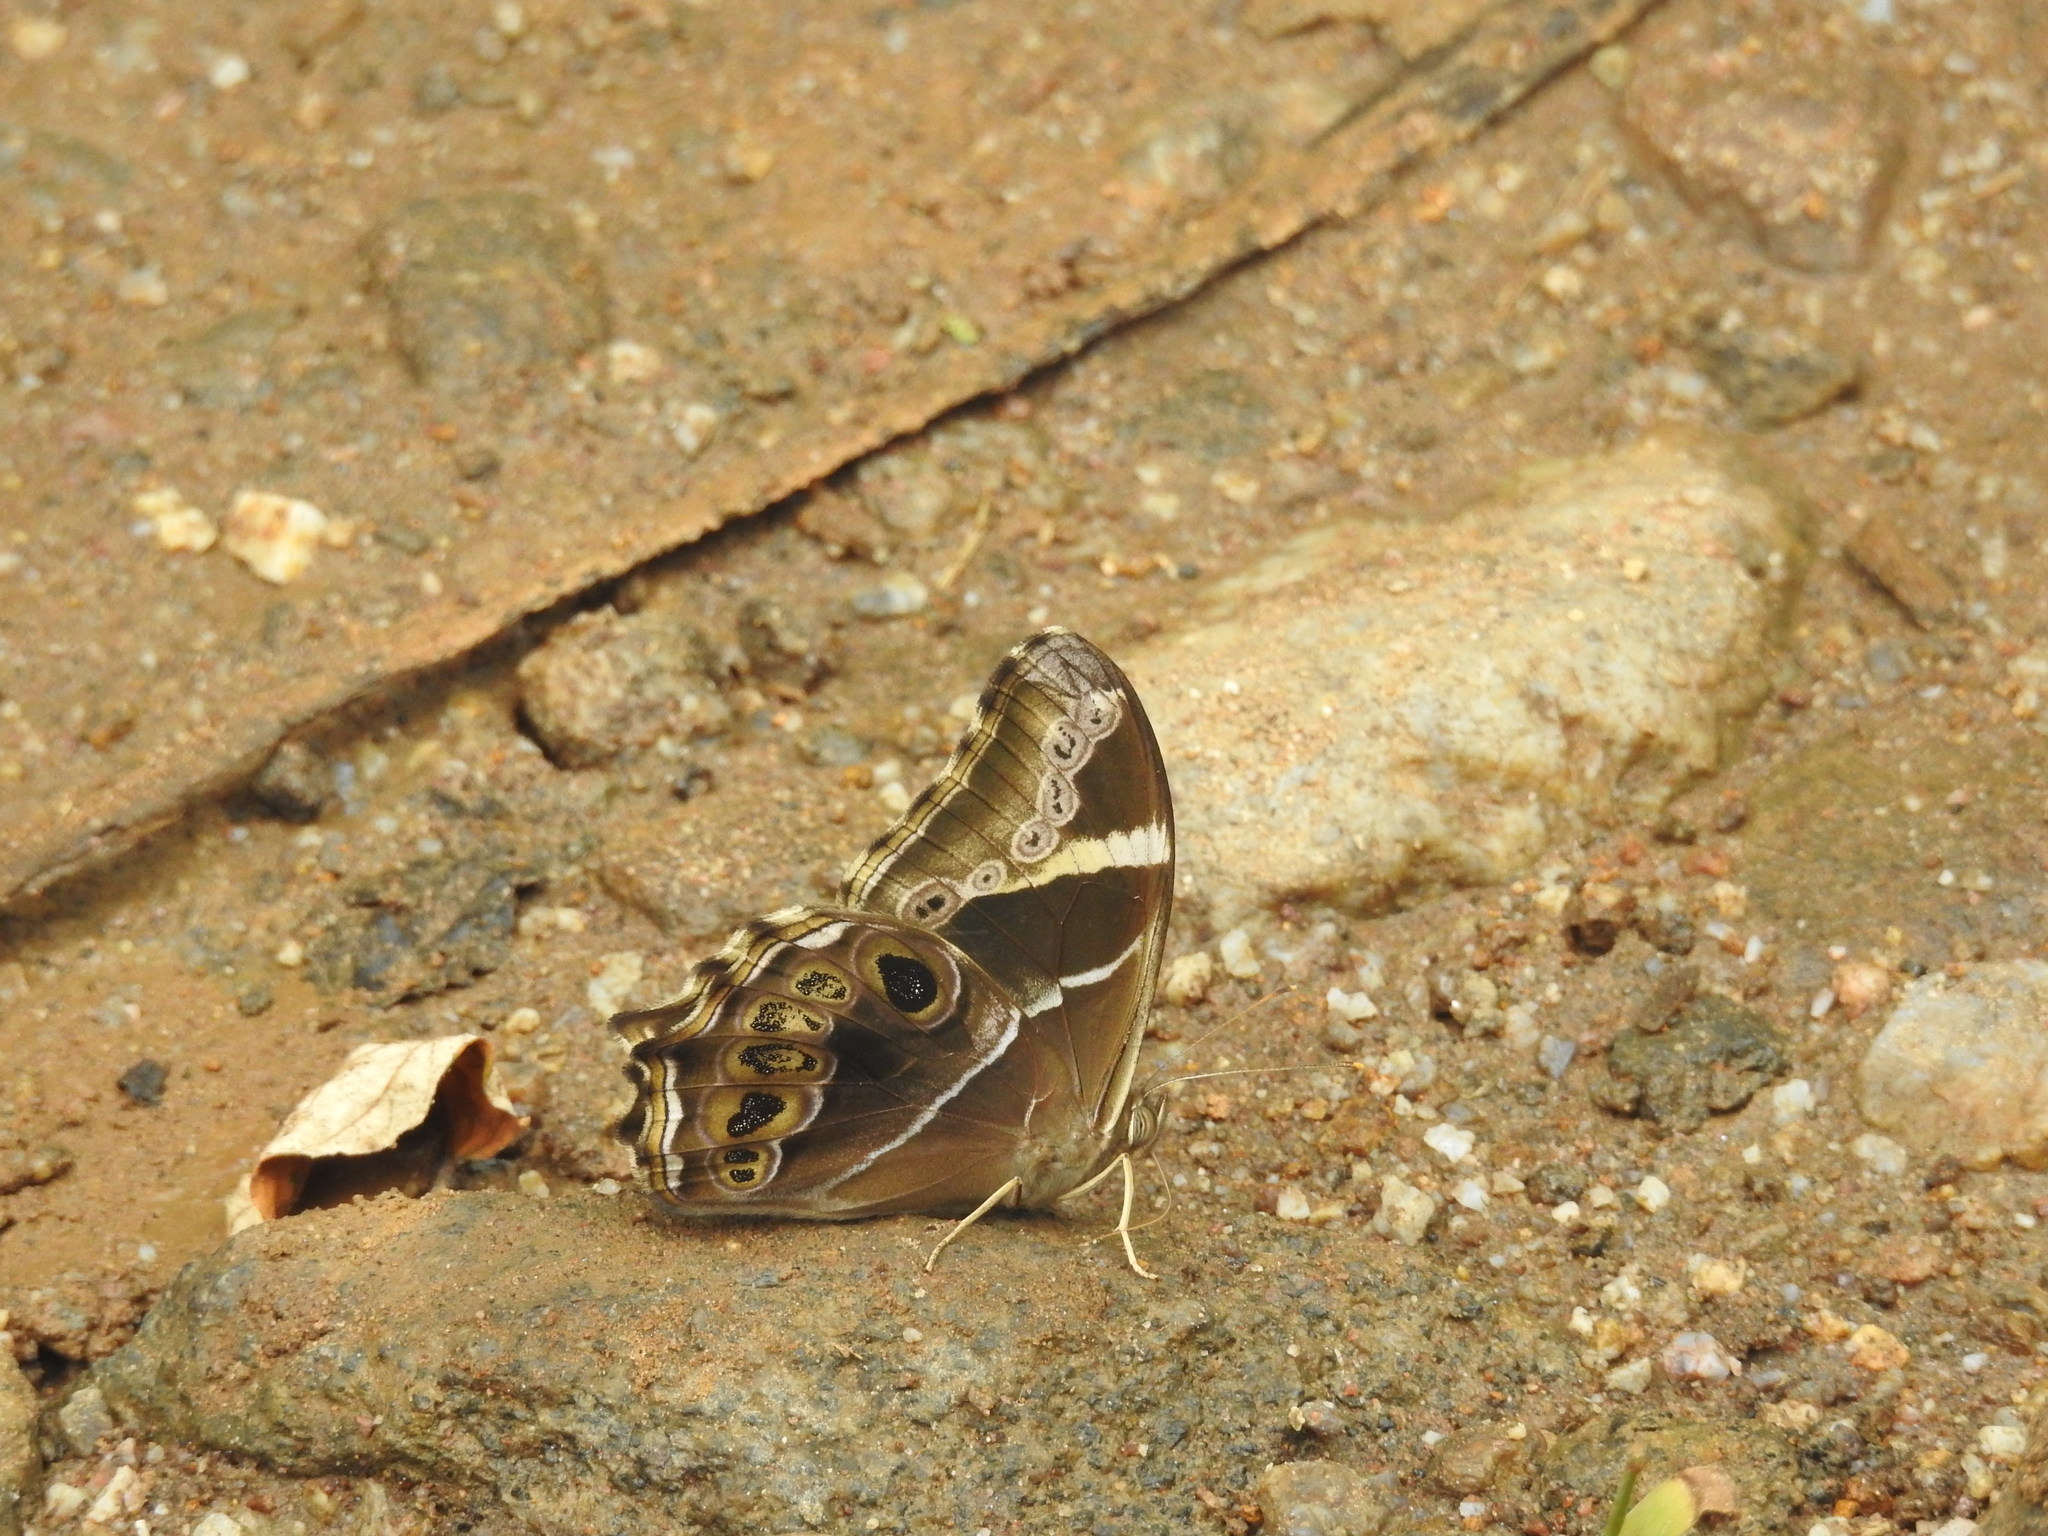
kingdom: Animalia
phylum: Arthropoda
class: Insecta
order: Lepidoptera
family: Nymphalidae
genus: Lethe
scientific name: Lethe europa
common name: Bamboo treebrown
